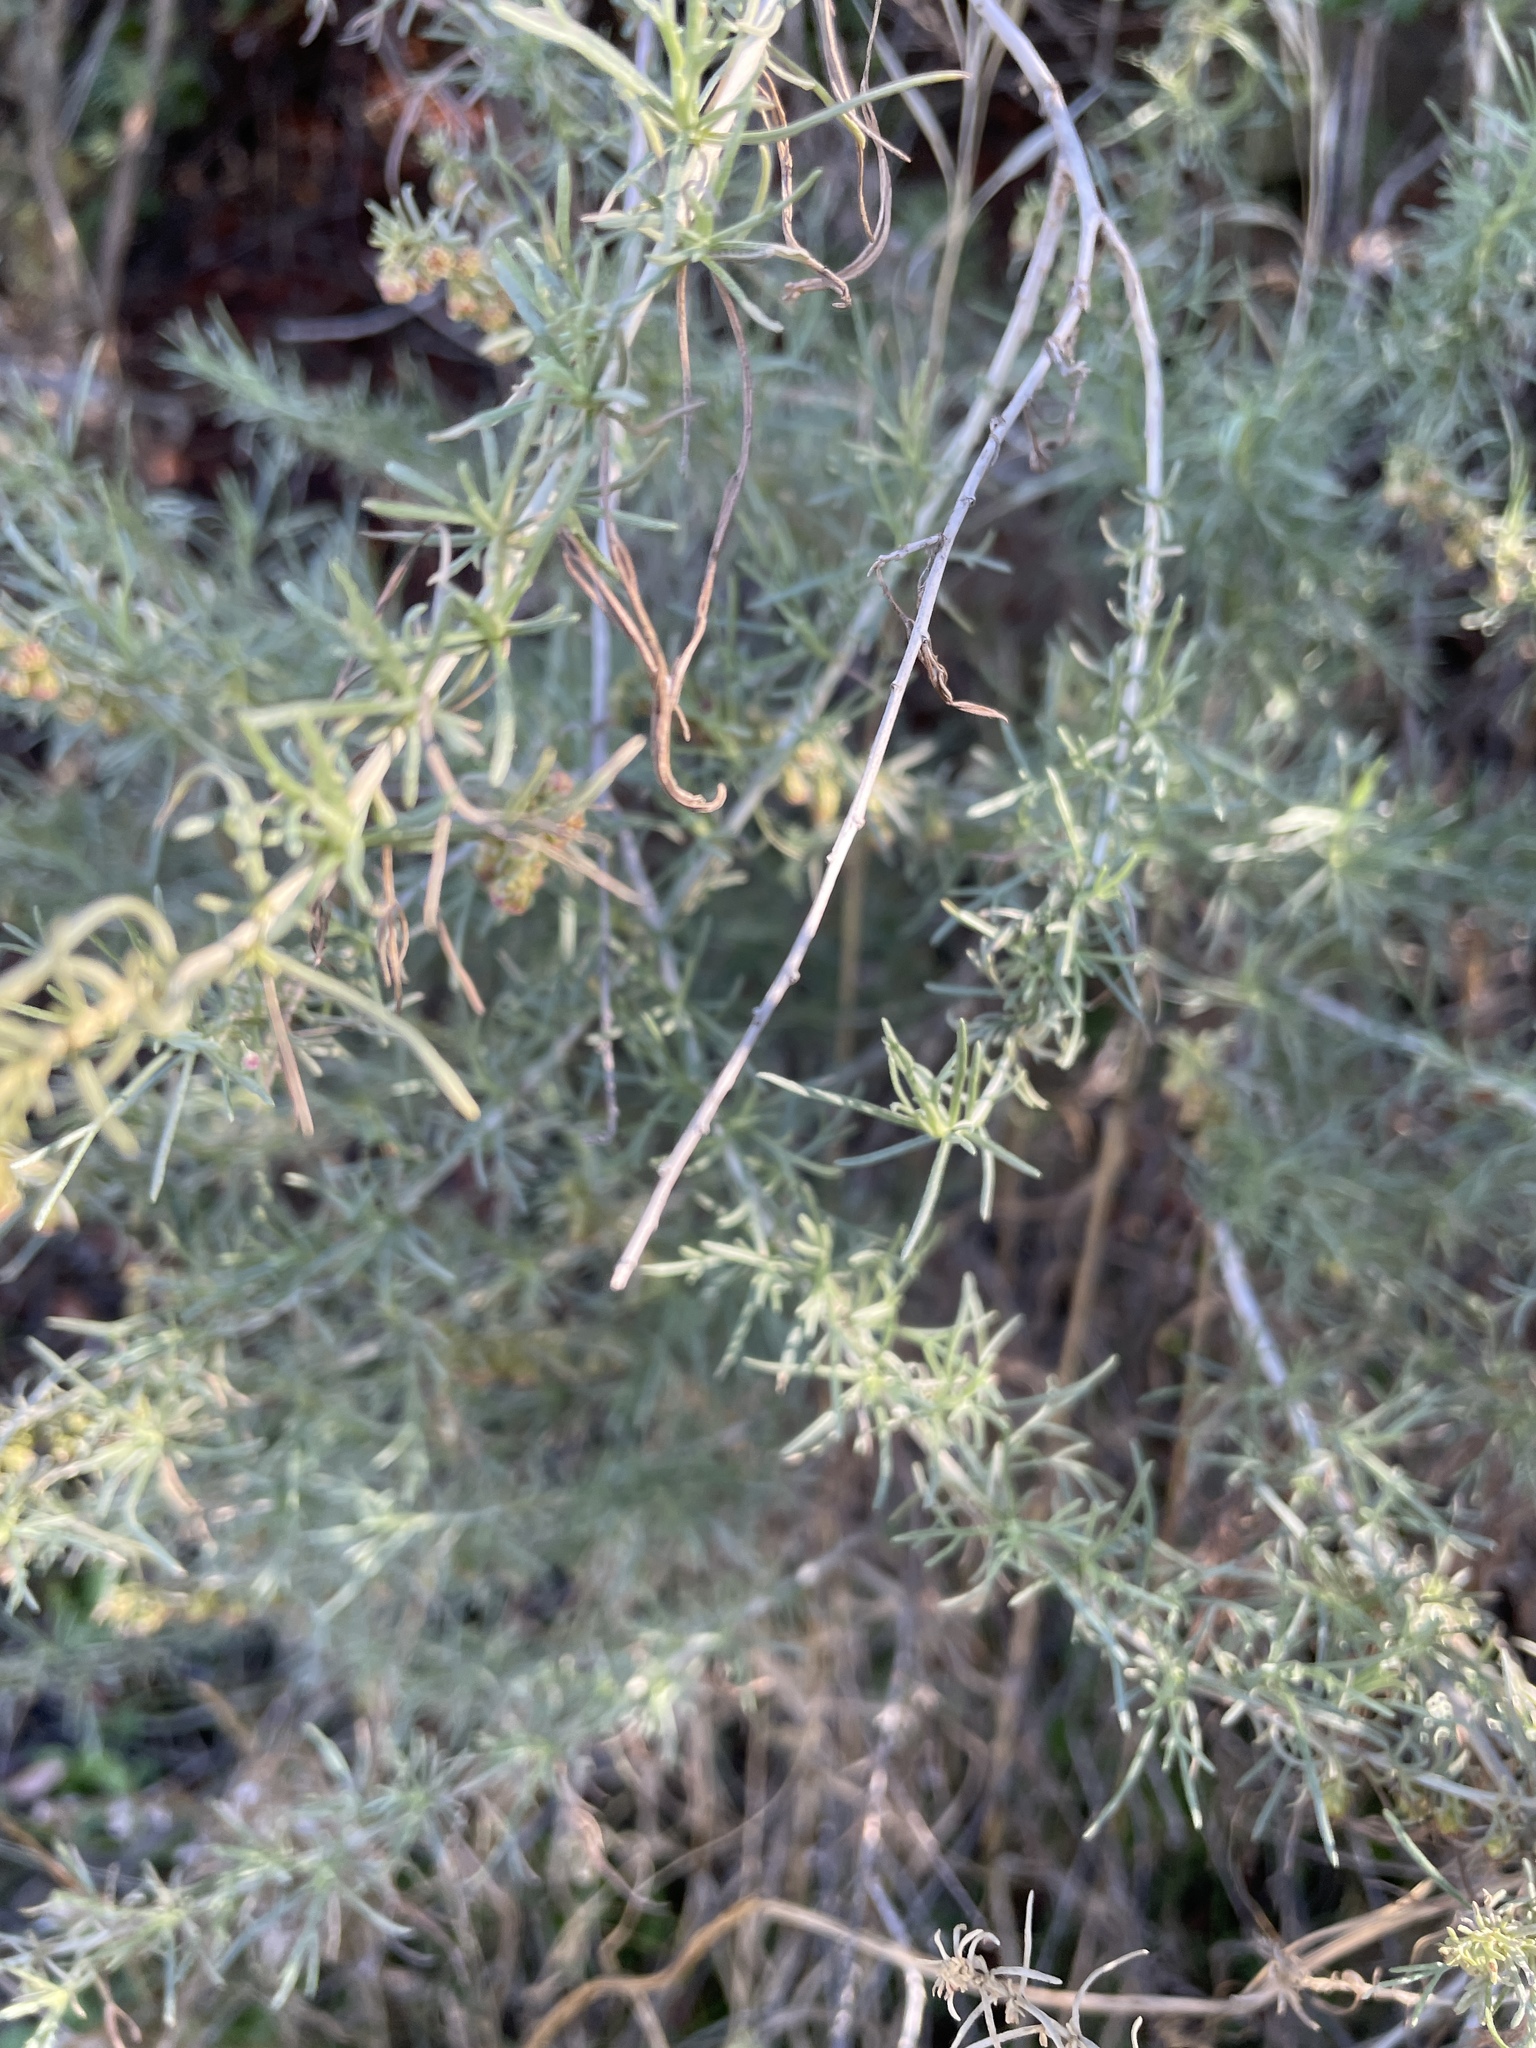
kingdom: Plantae
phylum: Tracheophyta
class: Magnoliopsida
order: Asterales
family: Asteraceae
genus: Artemisia
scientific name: Artemisia californica
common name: California sagebrush
